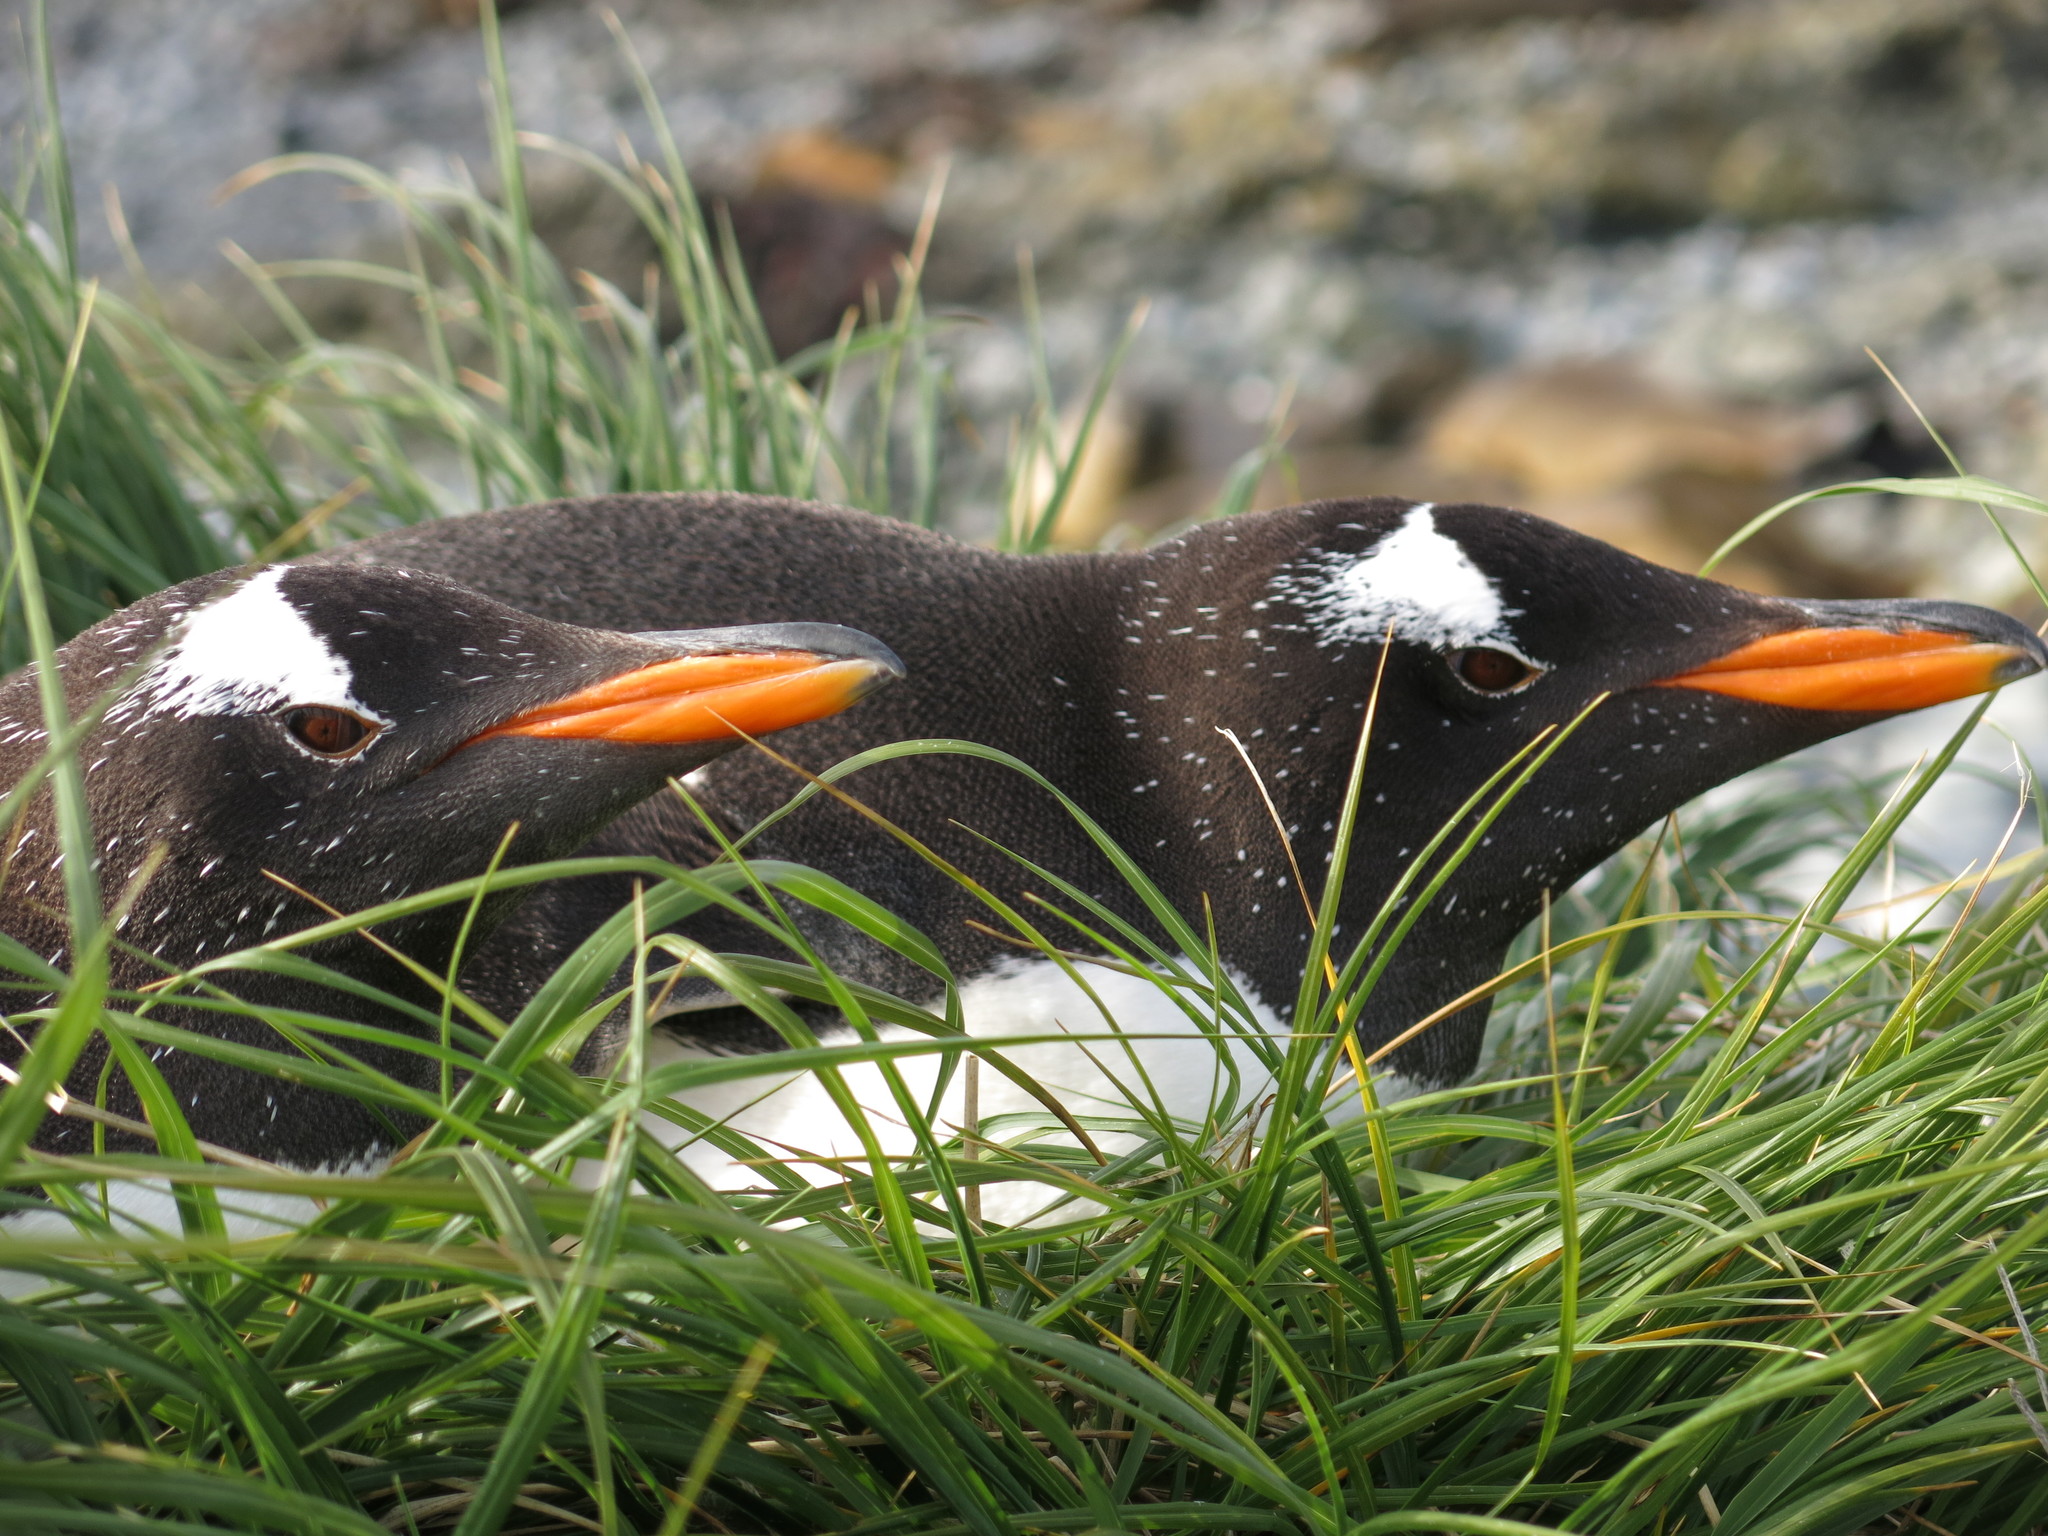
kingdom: Animalia
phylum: Chordata
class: Aves
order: Sphenisciformes
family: Spheniscidae
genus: Pygoscelis
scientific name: Pygoscelis papua
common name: Gentoo penguin
